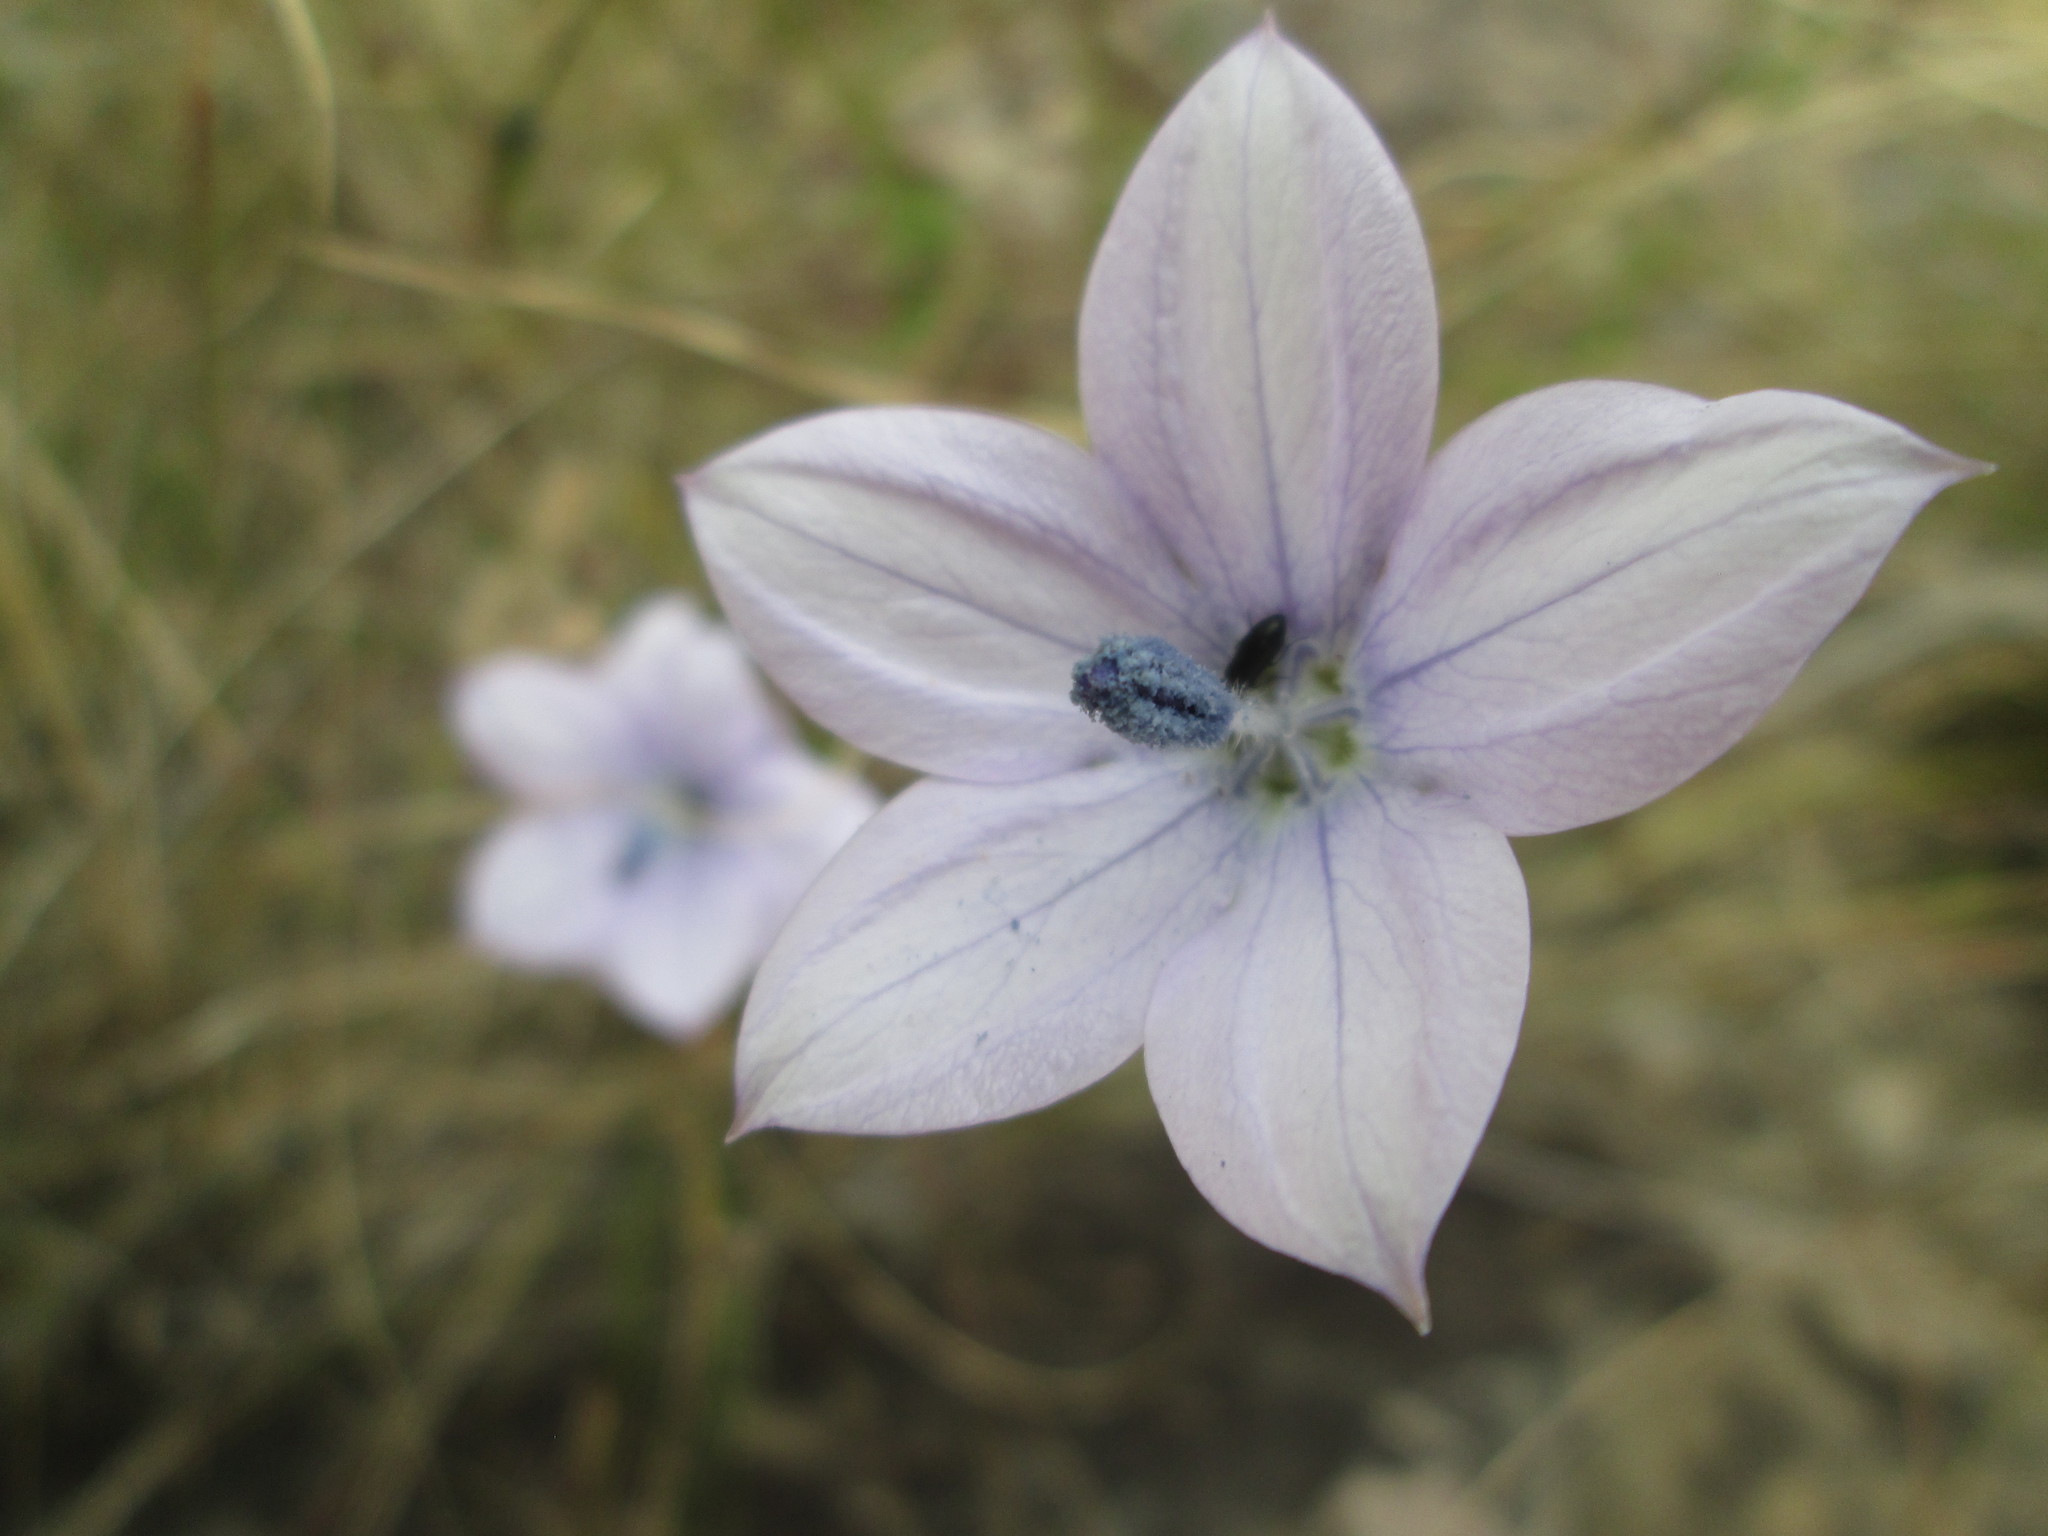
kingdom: Plantae
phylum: Tracheophyta
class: Magnoliopsida
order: Asterales
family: Campanulaceae
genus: Wahlenbergia
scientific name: Wahlenbergia grandiflora
